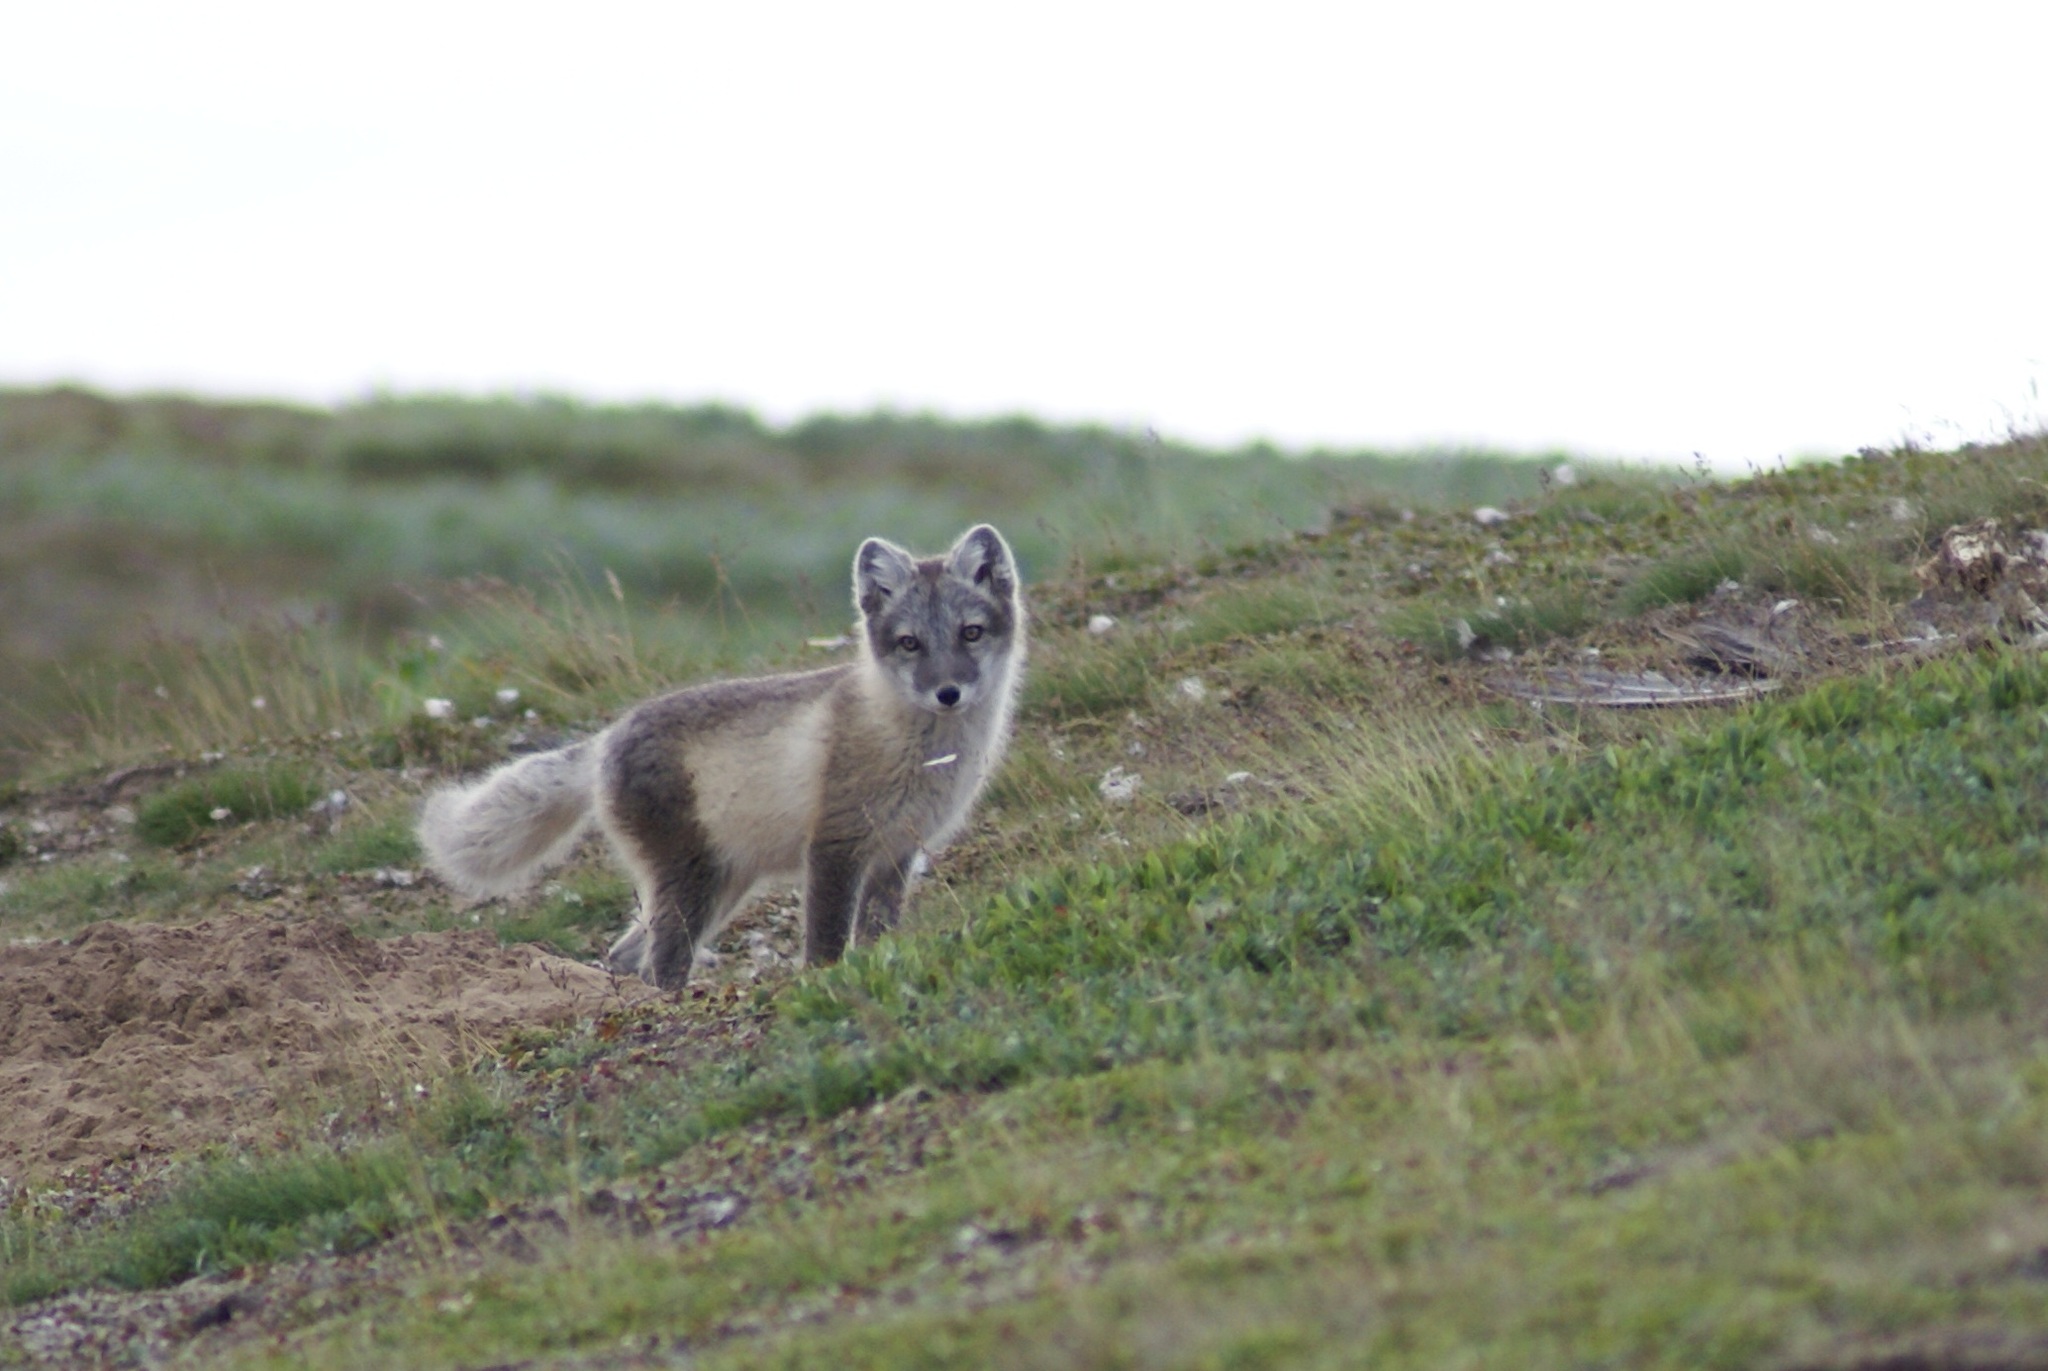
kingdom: Animalia
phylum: Chordata
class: Mammalia
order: Carnivora
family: Canidae
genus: Vulpes
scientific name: Vulpes lagopus
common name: Arctic fox
